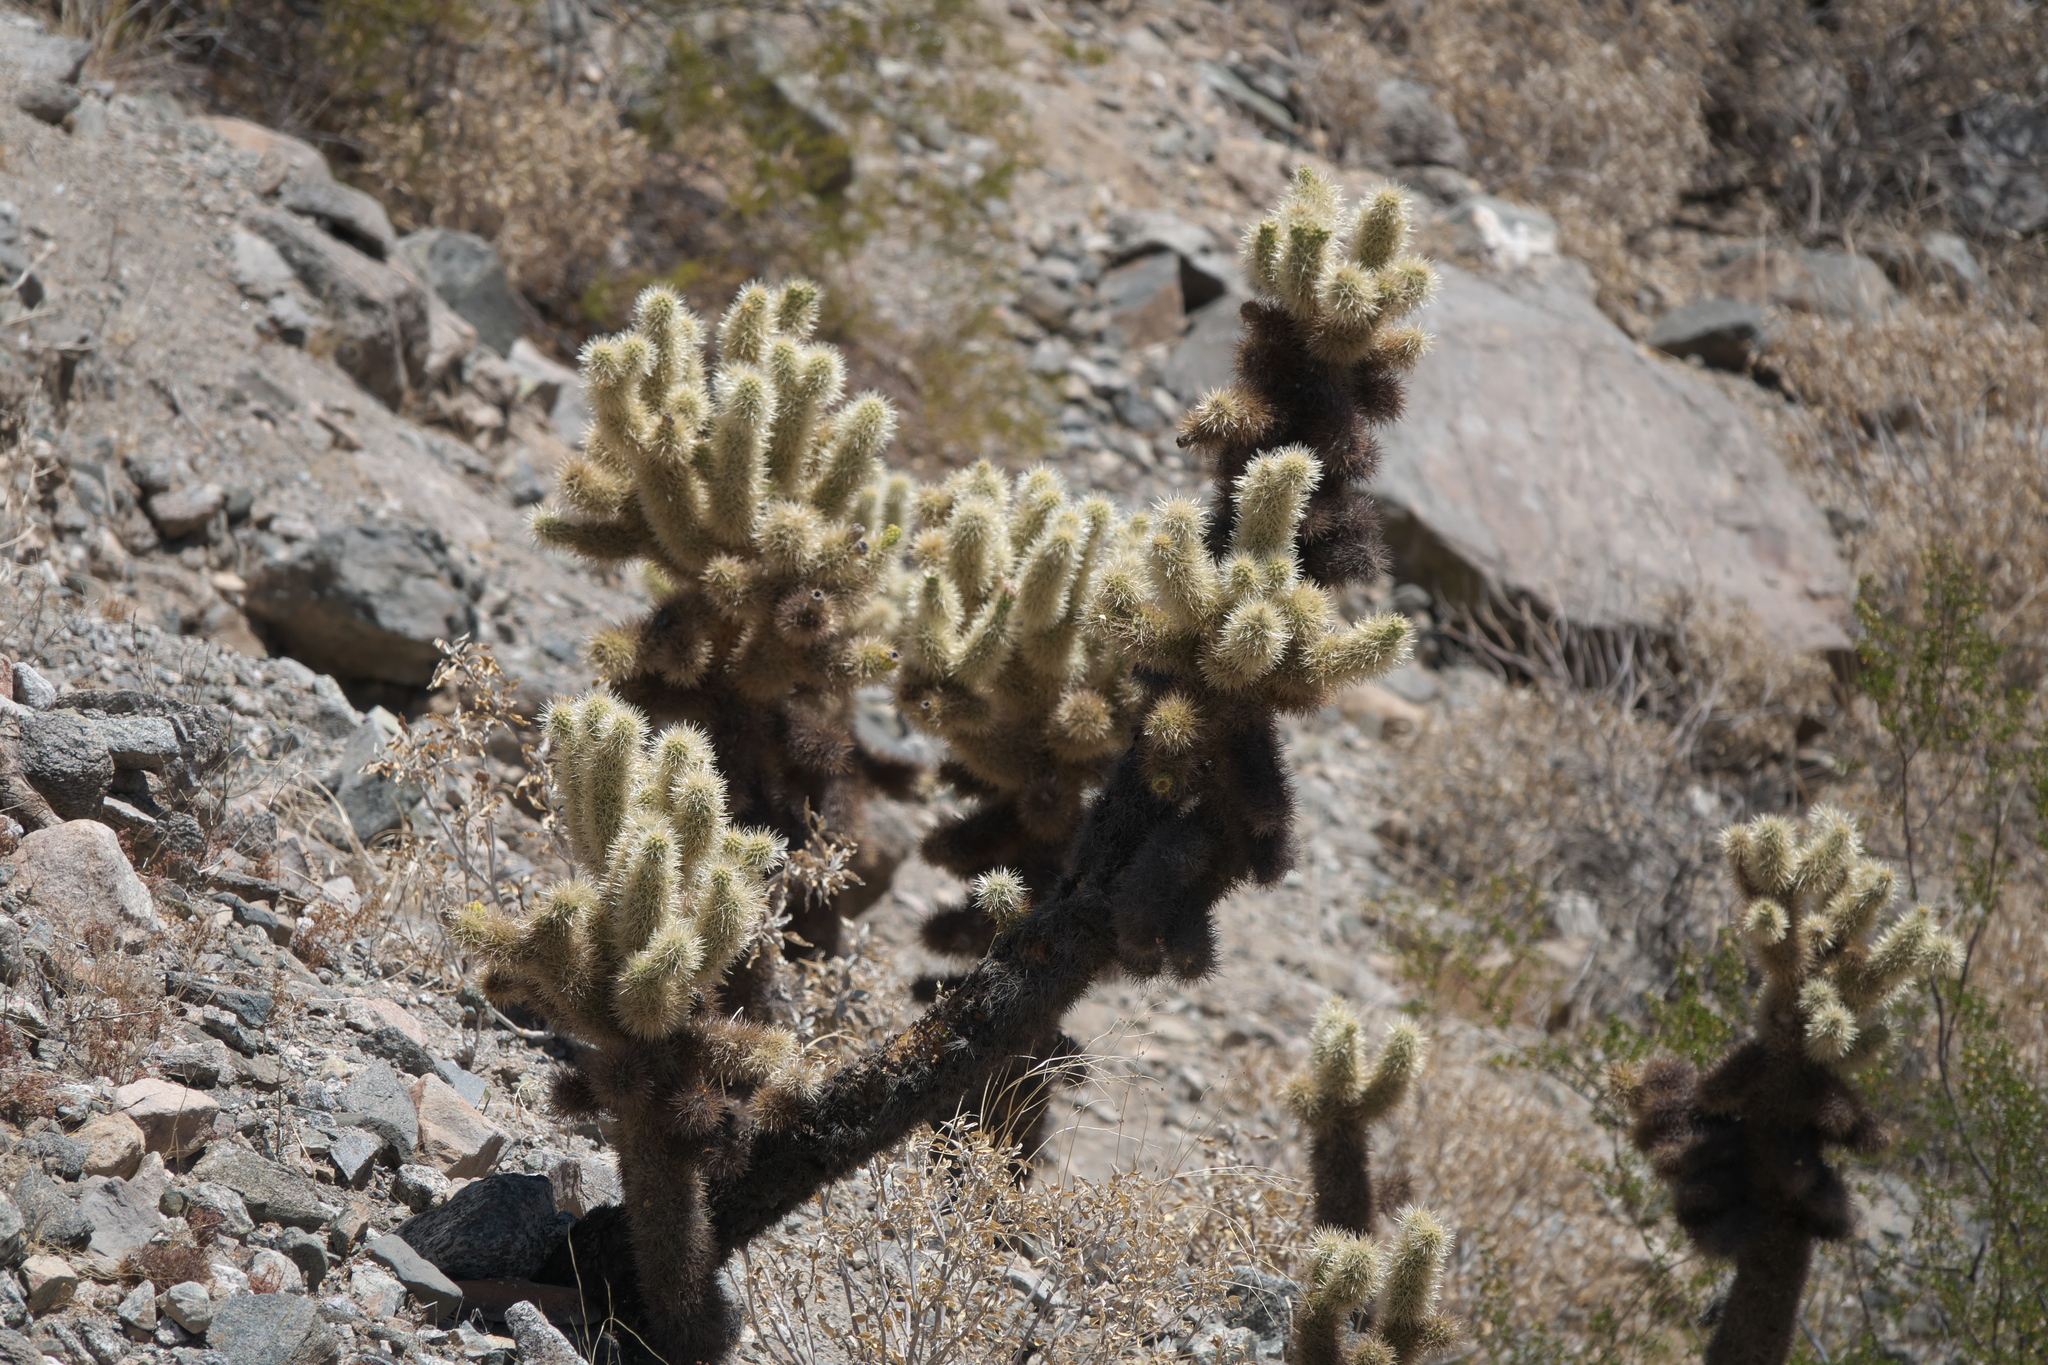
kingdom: Plantae
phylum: Tracheophyta
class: Magnoliopsida
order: Caryophyllales
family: Cactaceae
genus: Cylindropuntia
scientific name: Cylindropuntia fosbergii
